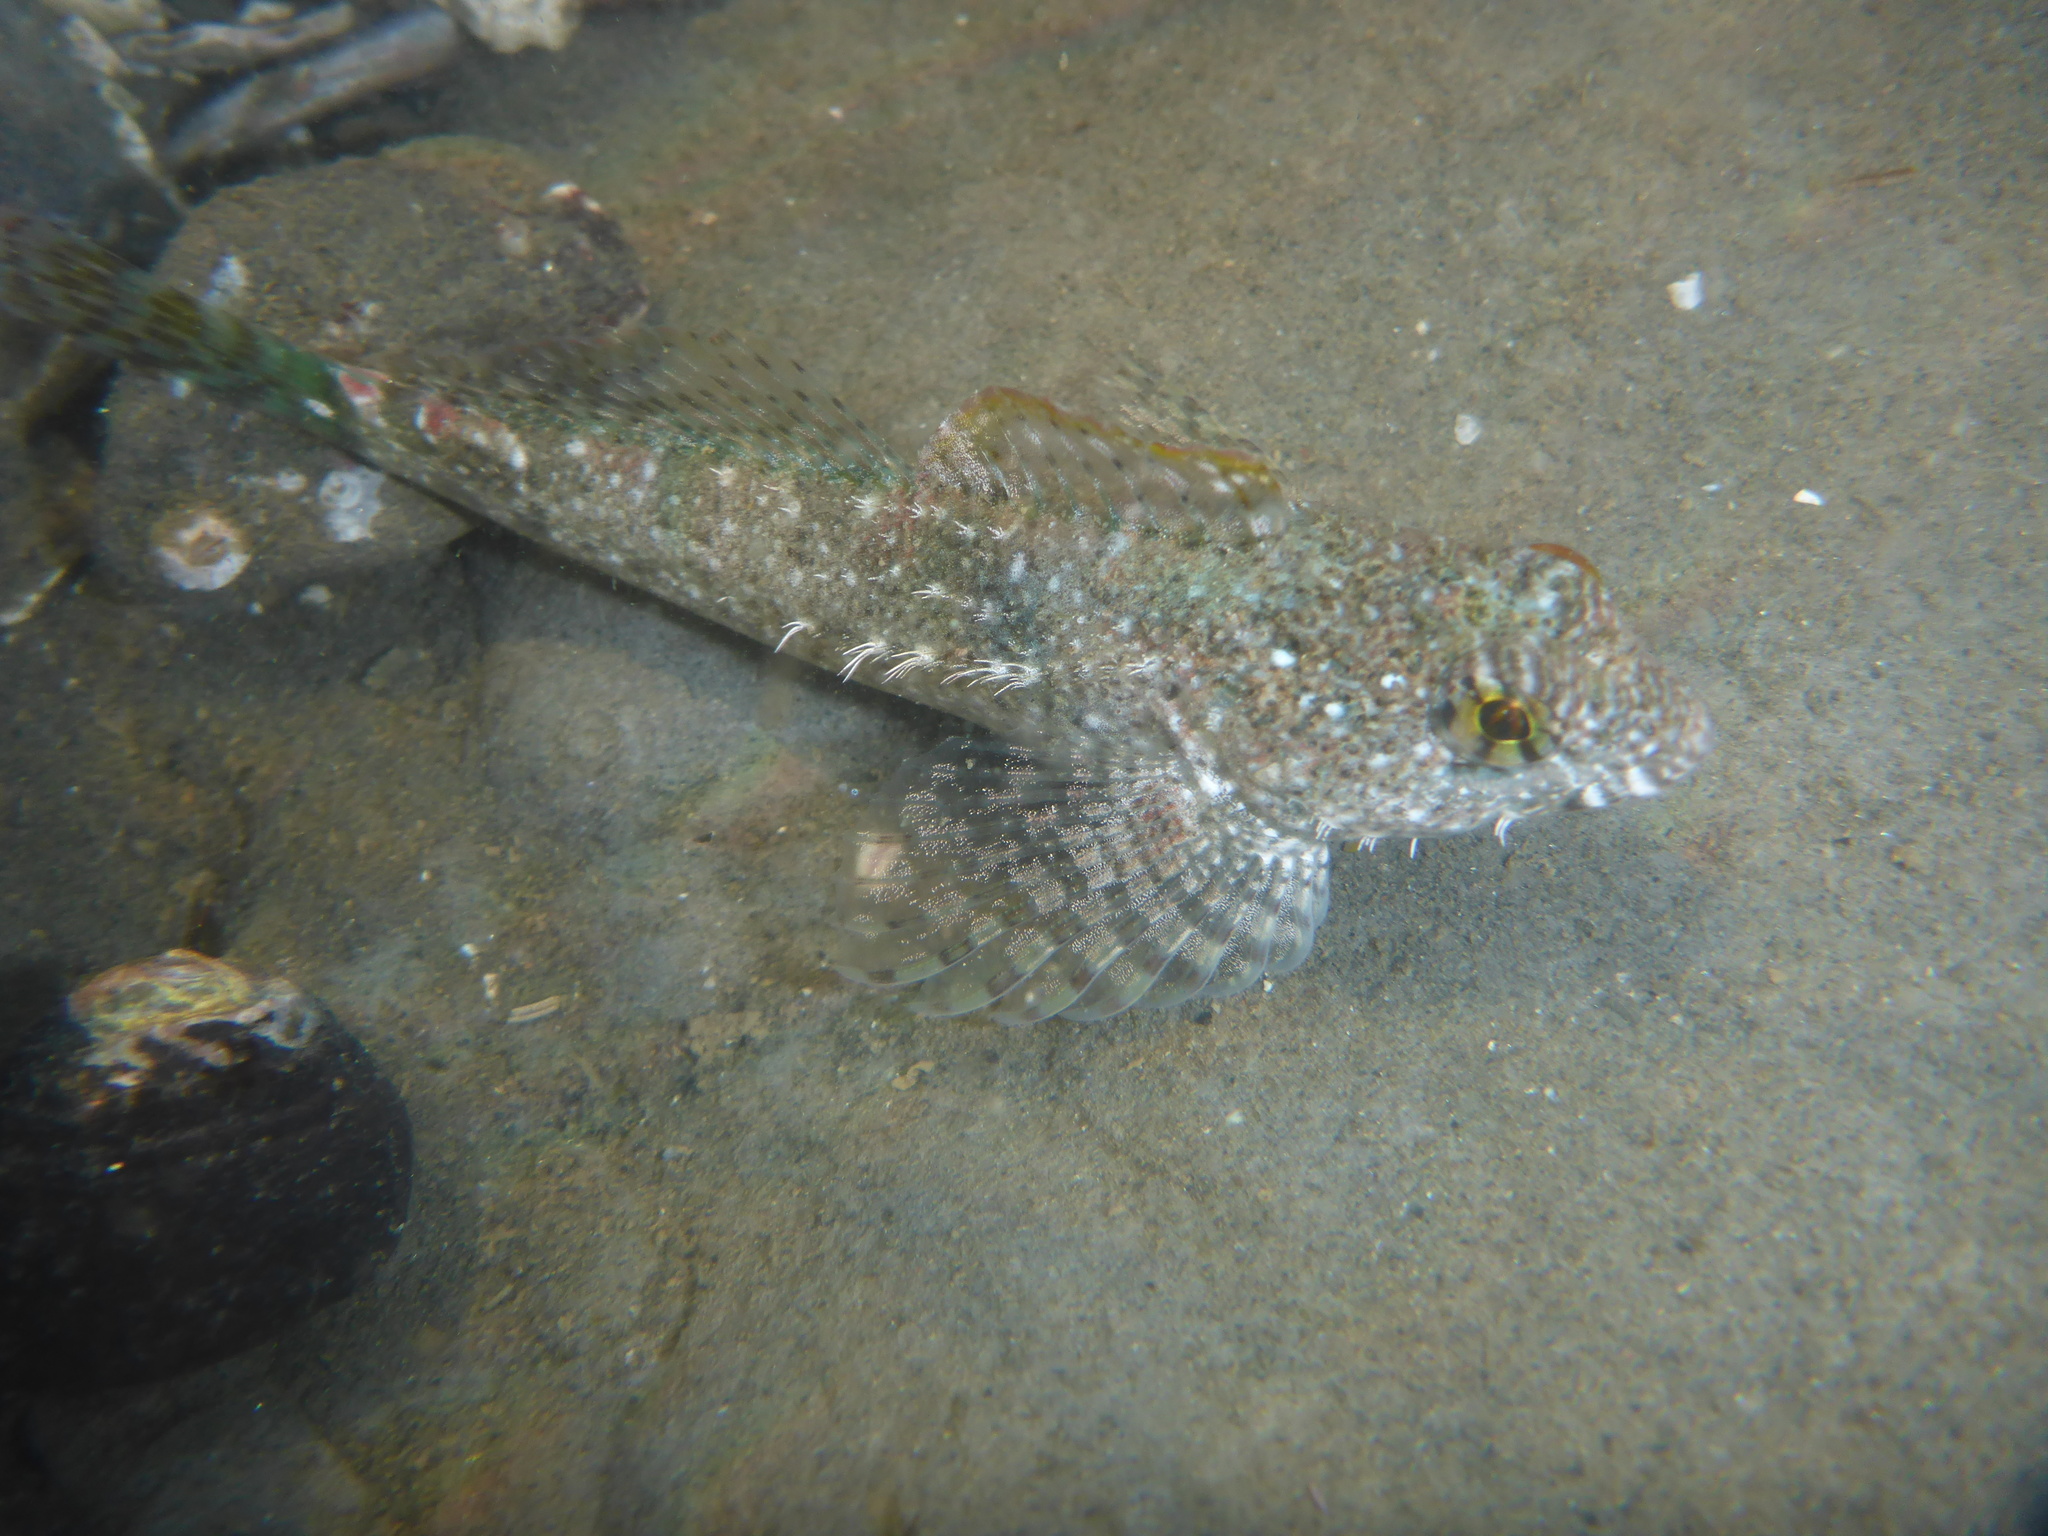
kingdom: Animalia
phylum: Chordata
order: Scorpaeniformes
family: Cottidae
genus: Clinocottus
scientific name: Clinocottus analis
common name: Woolly sculpin
